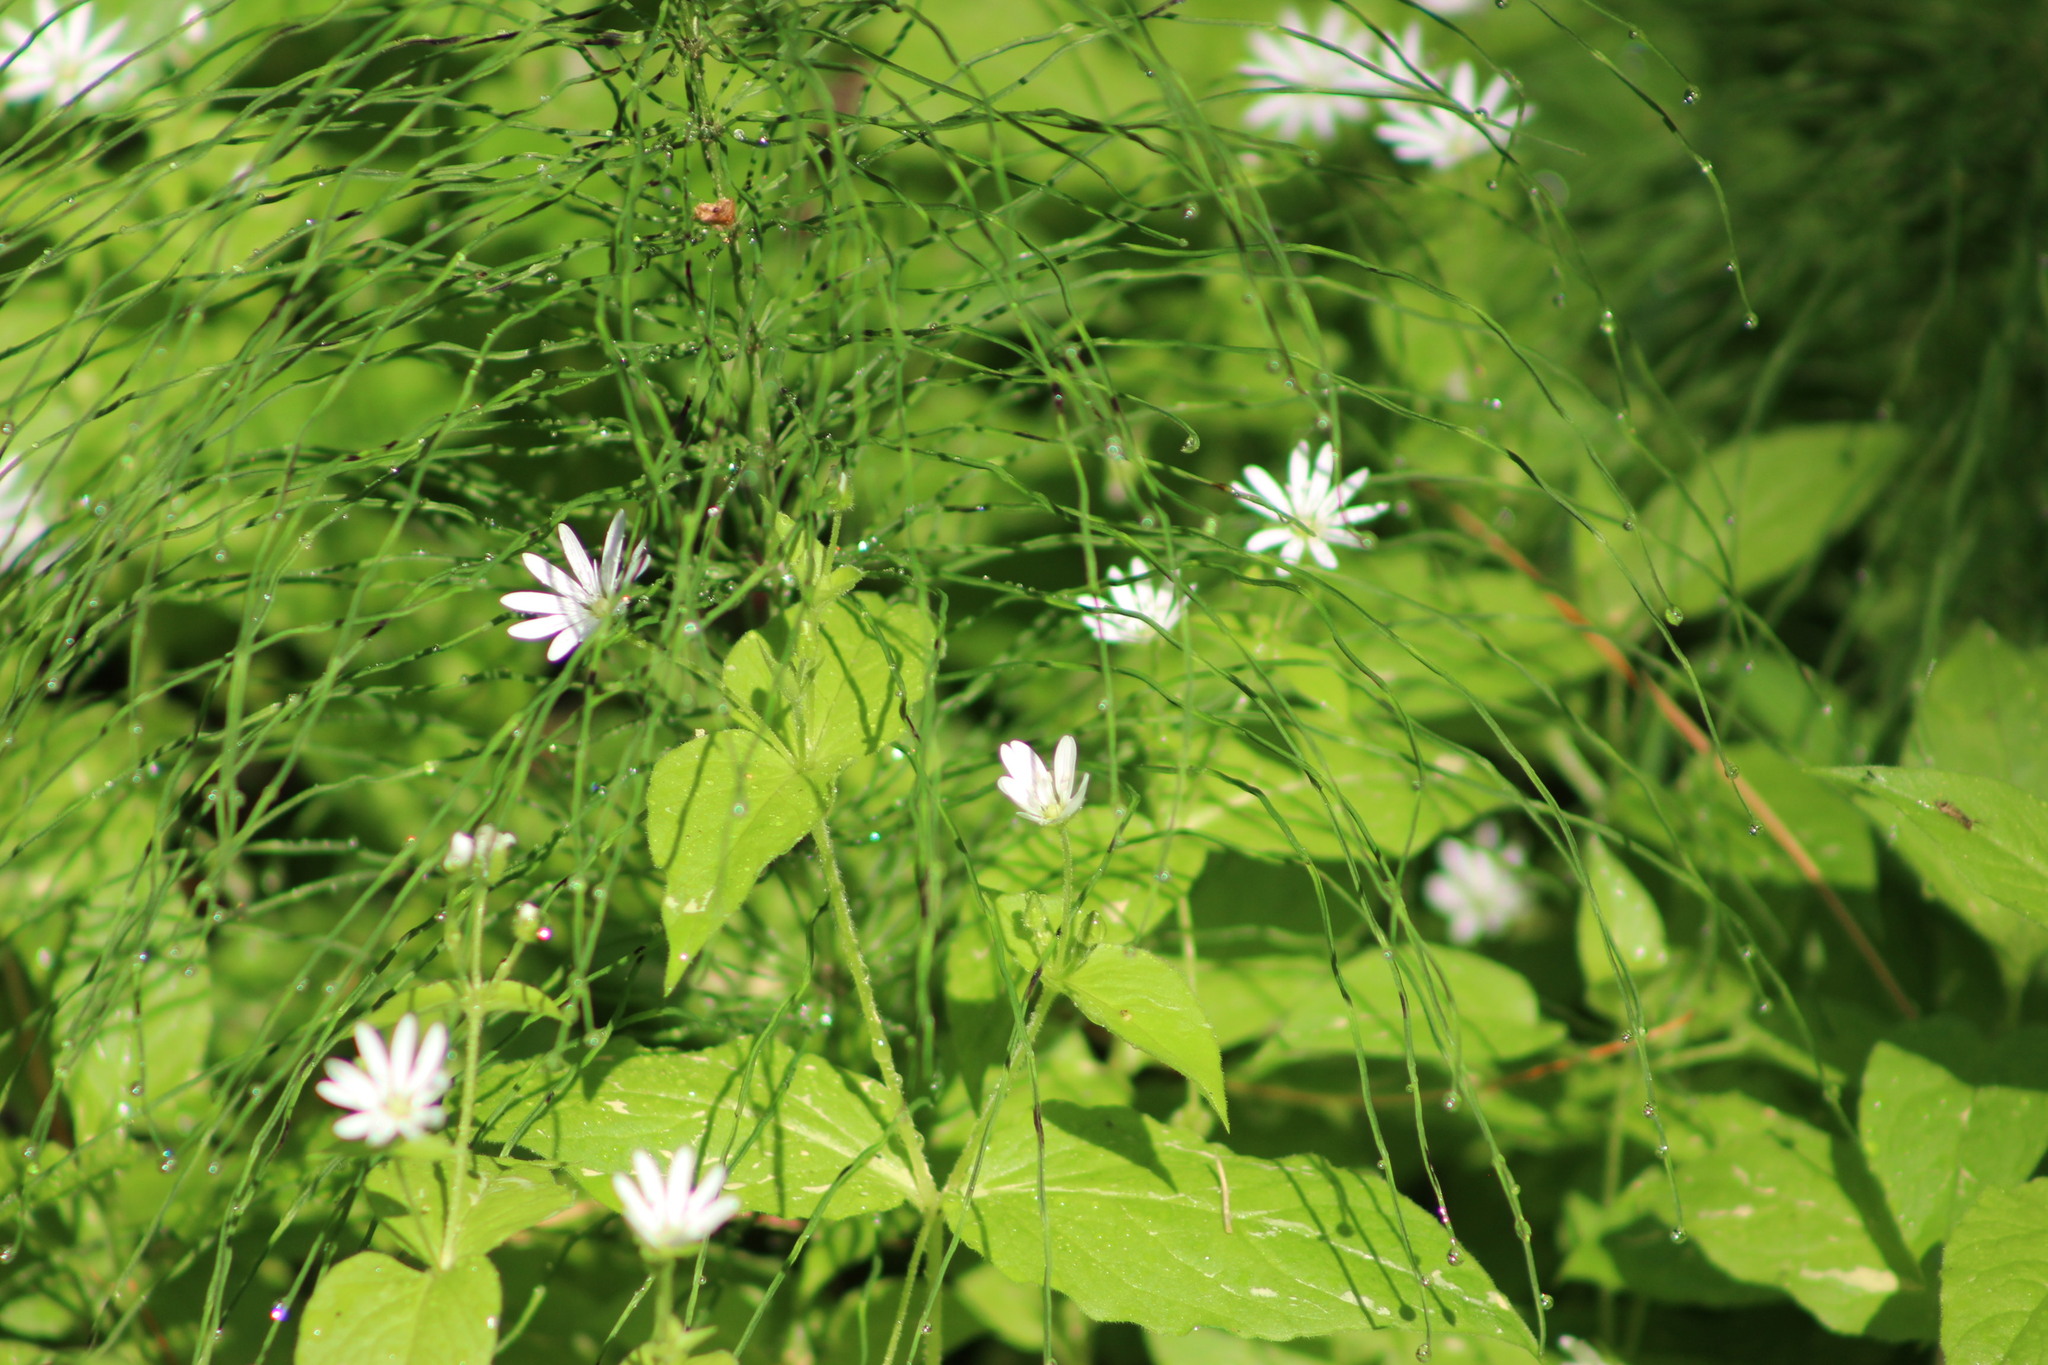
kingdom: Plantae
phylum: Tracheophyta
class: Magnoliopsida
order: Caryophyllales
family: Caryophyllaceae
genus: Stellaria
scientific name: Stellaria bungeana
